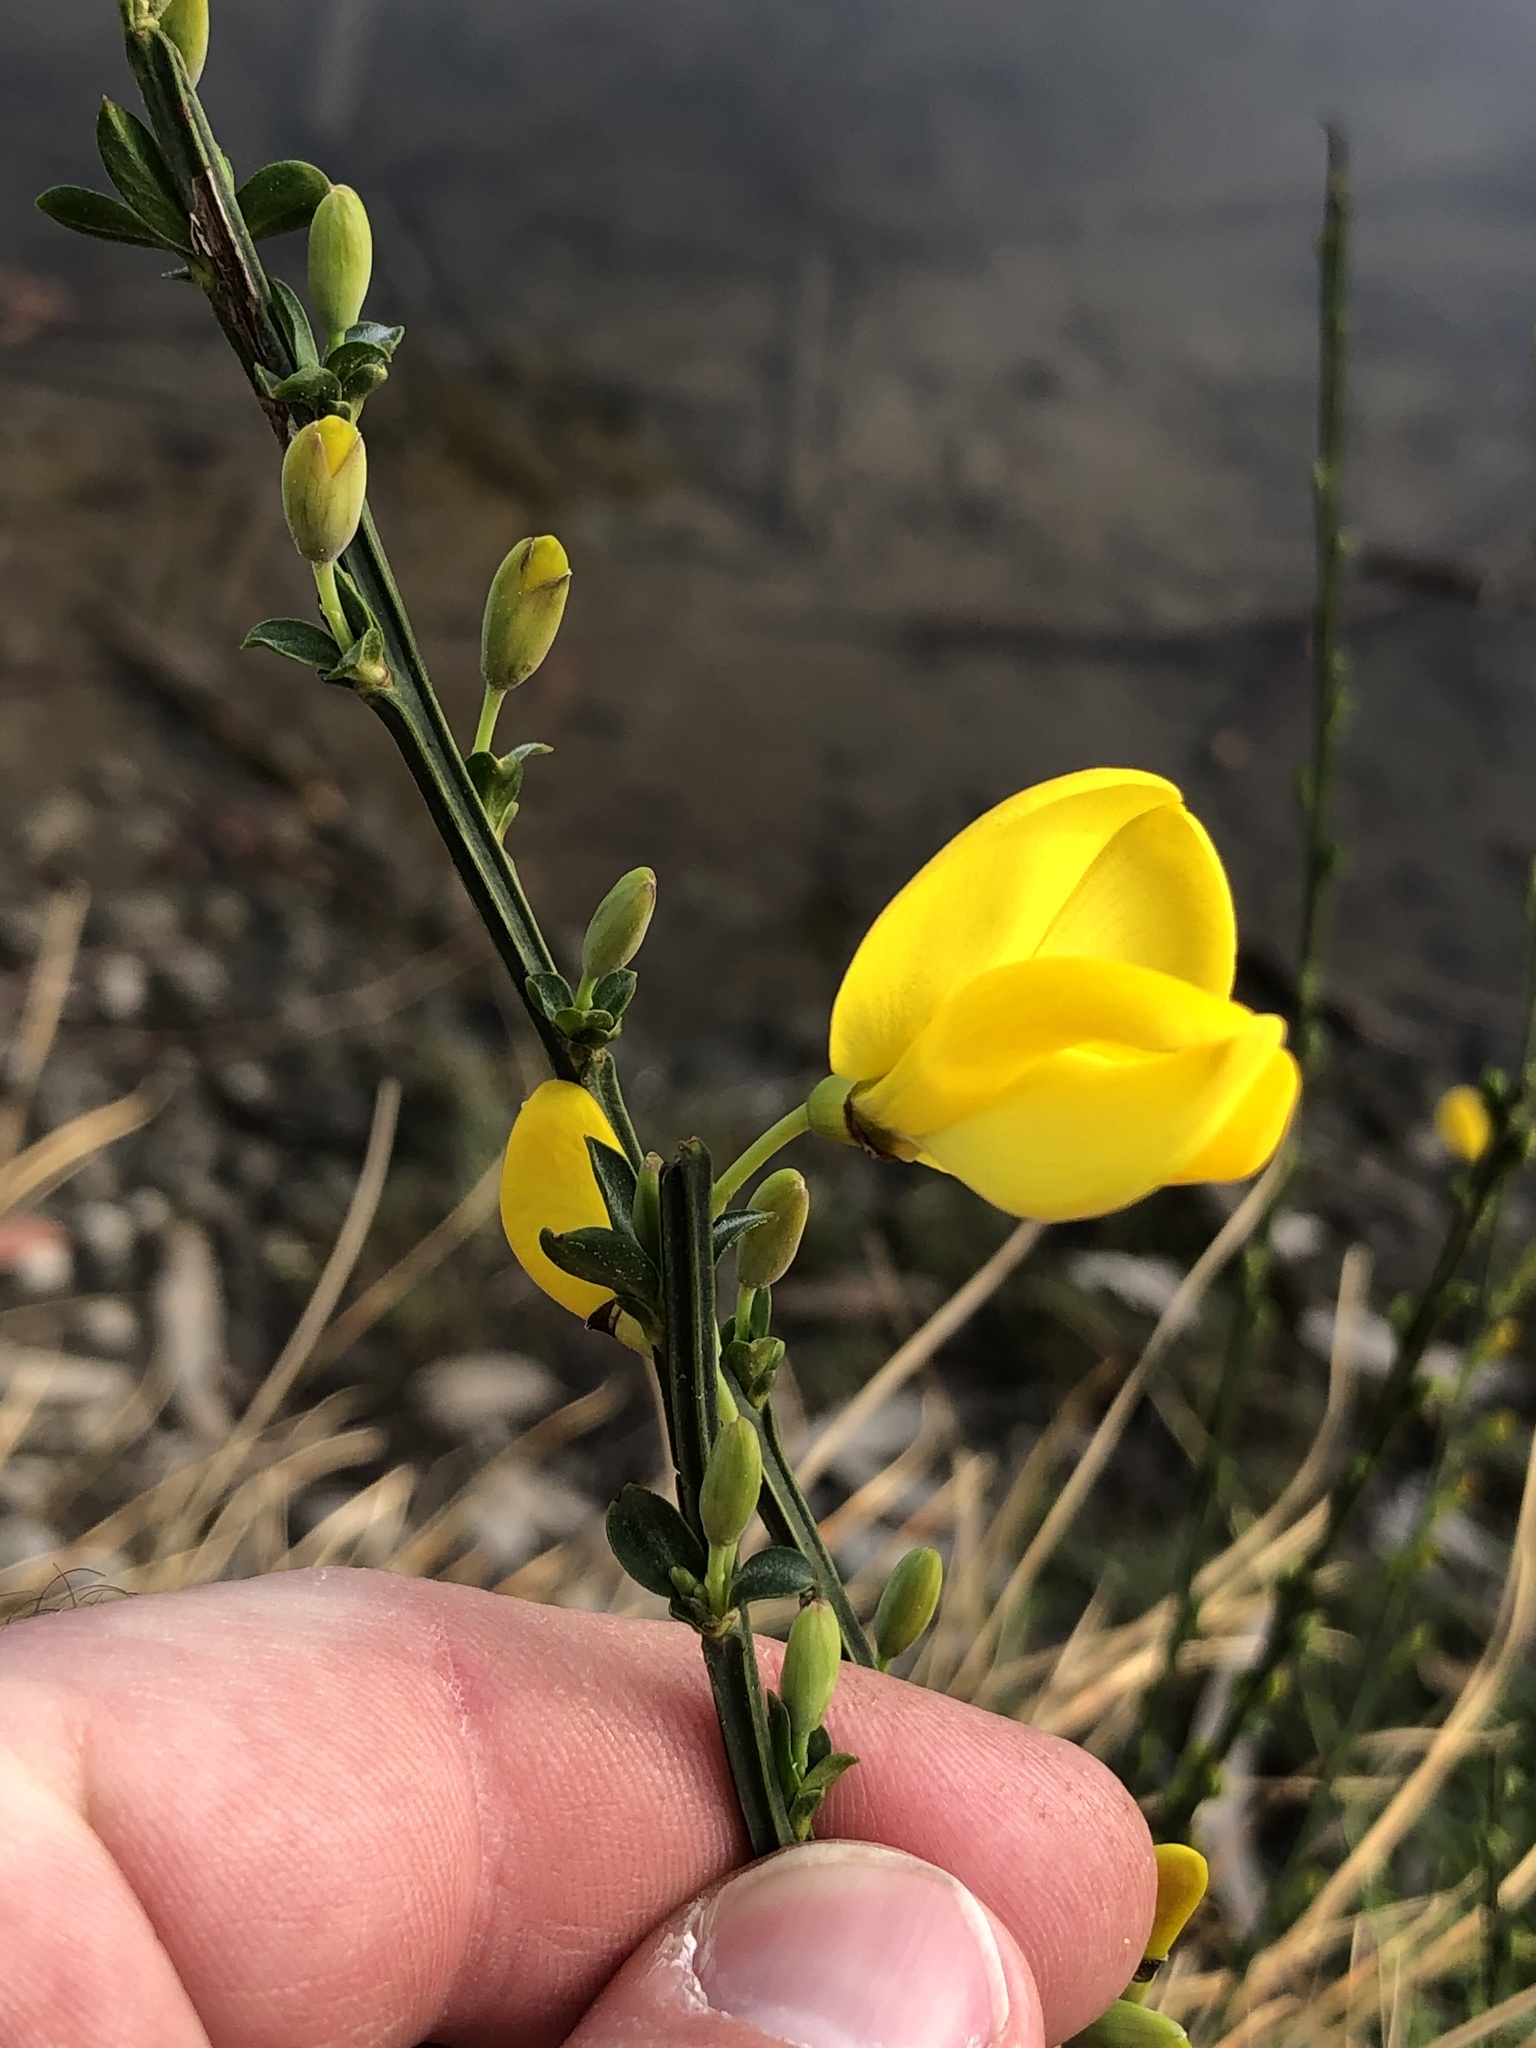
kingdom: Plantae
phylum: Tracheophyta
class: Magnoliopsida
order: Fabales
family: Fabaceae
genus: Cytisus
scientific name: Cytisus scoparius
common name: Scotch broom
